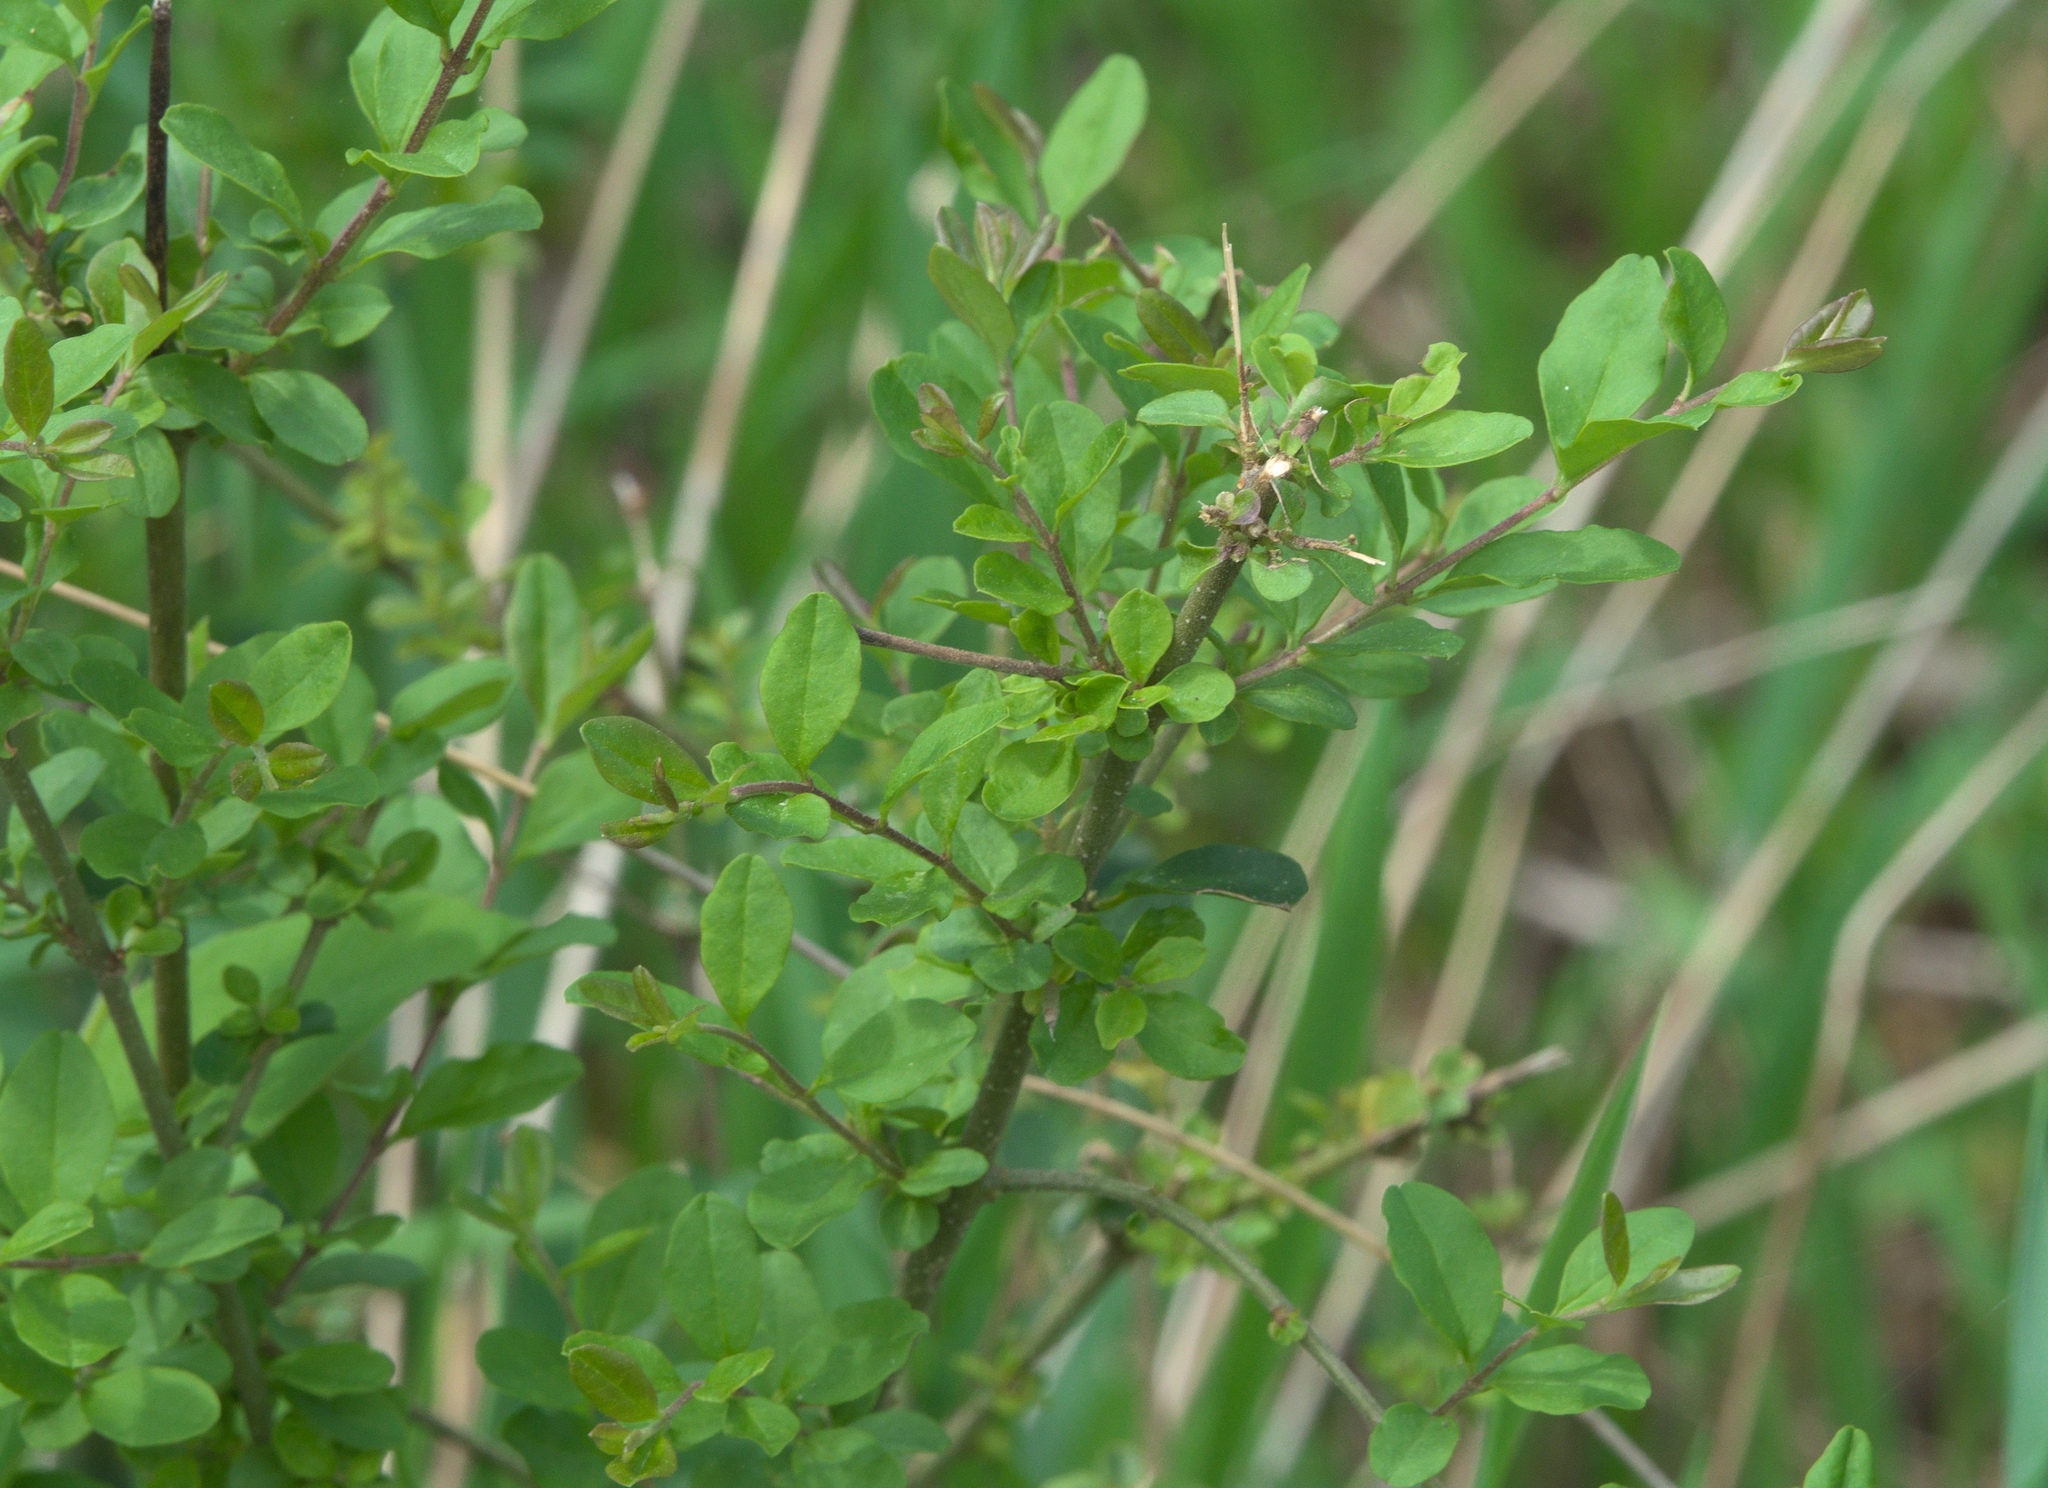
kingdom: Plantae
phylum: Tracheophyta
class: Magnoliopsida
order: Lamiales
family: Oleaceae
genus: Ligustrum
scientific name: Ligustrum sinense
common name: Chinese privet
